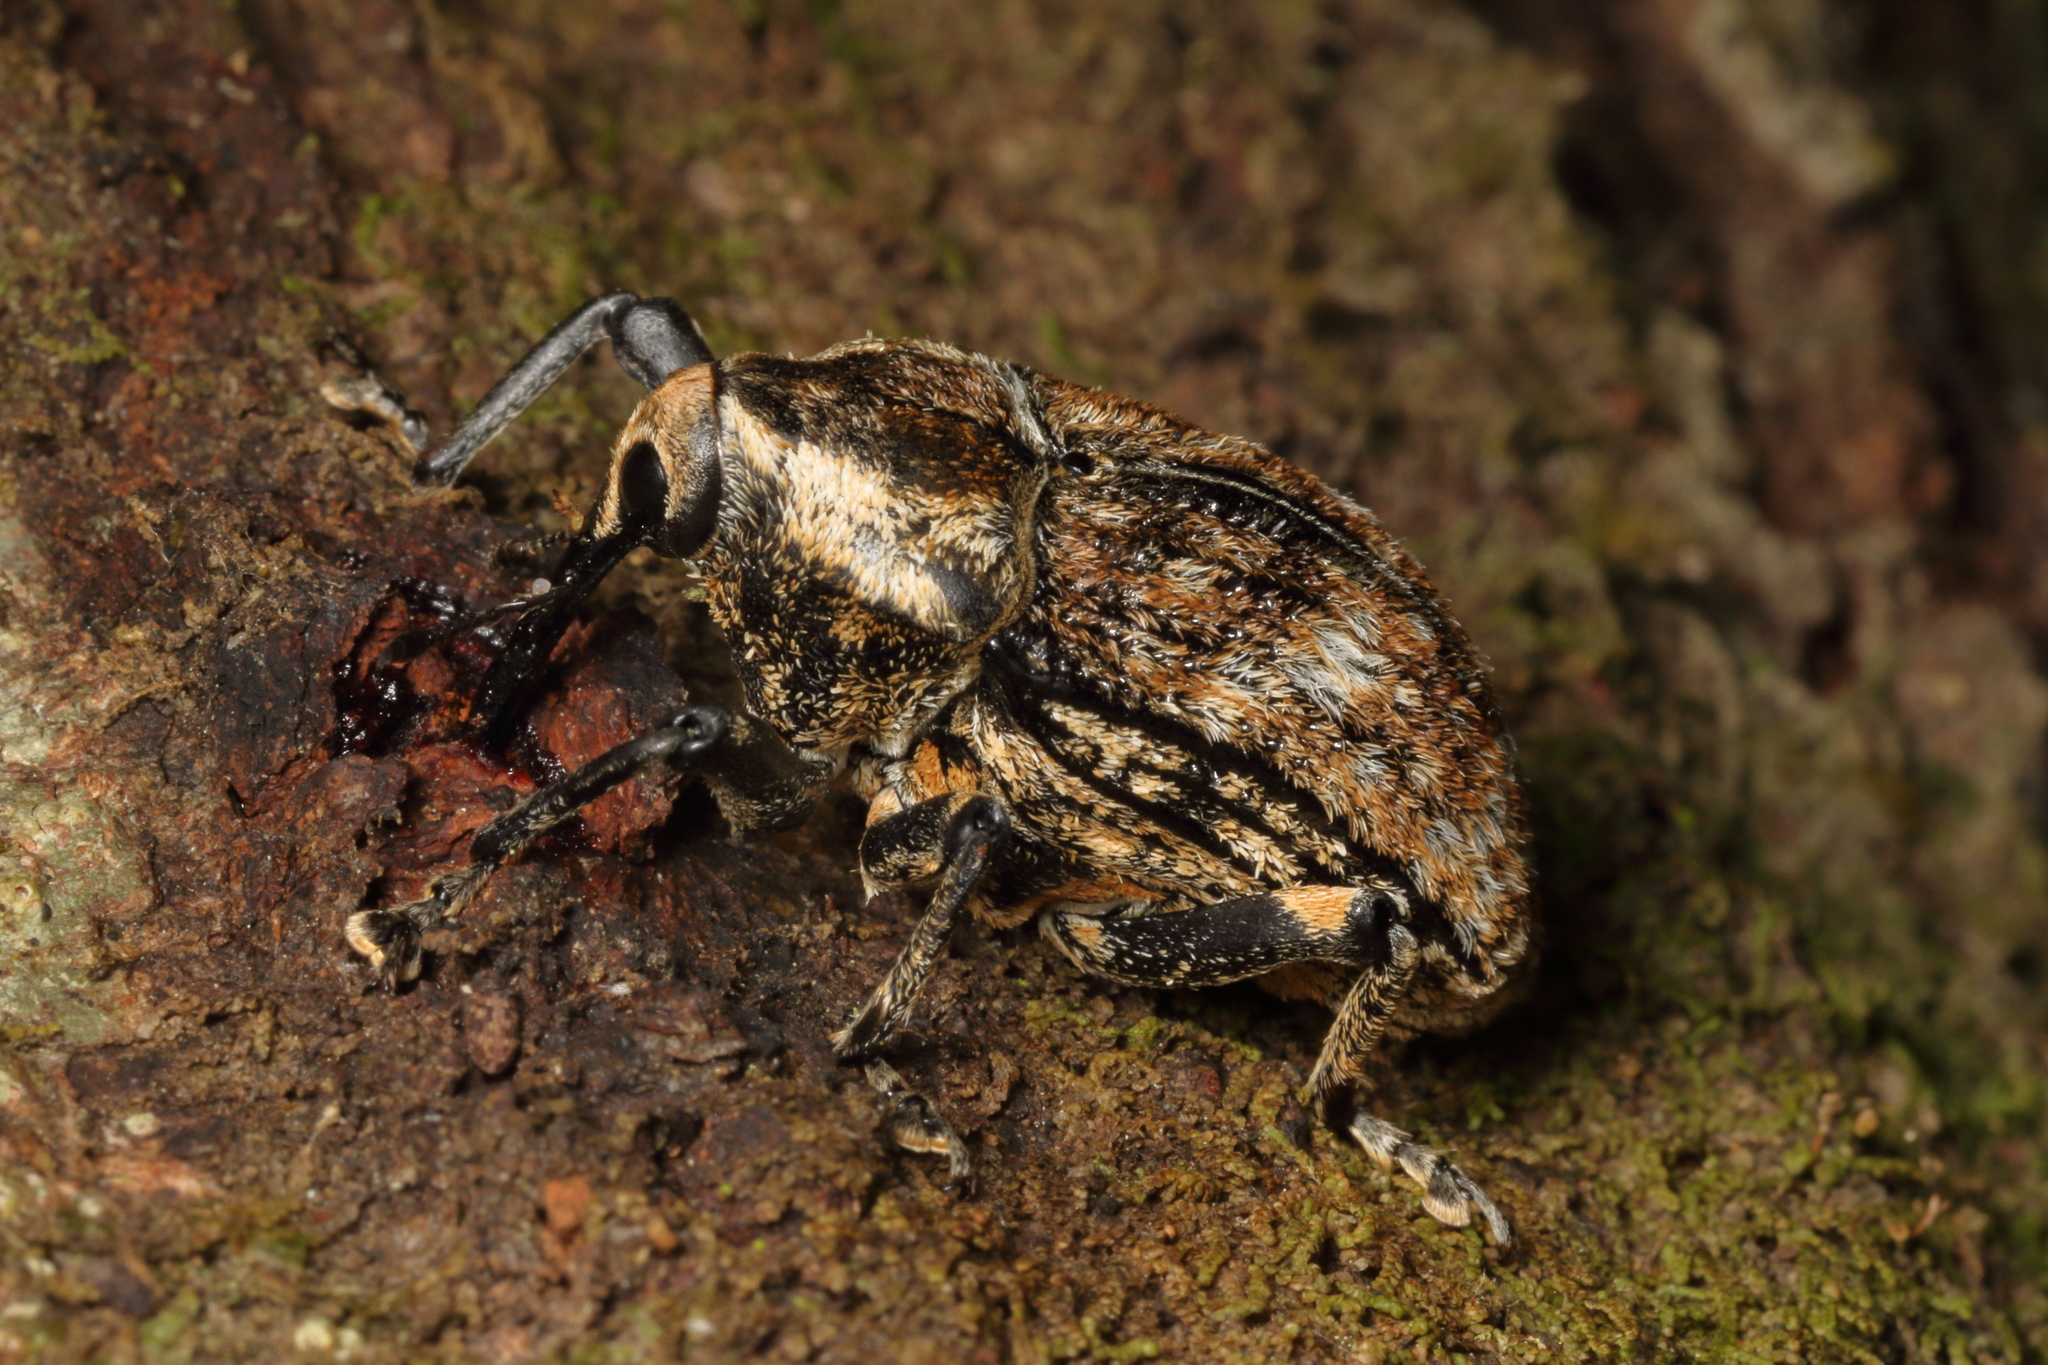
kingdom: Animalia
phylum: Arthropoda
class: Insecta
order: Coleoptera
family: Curculionidae
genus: Rhynchodes
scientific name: Rhynchodes ursus
